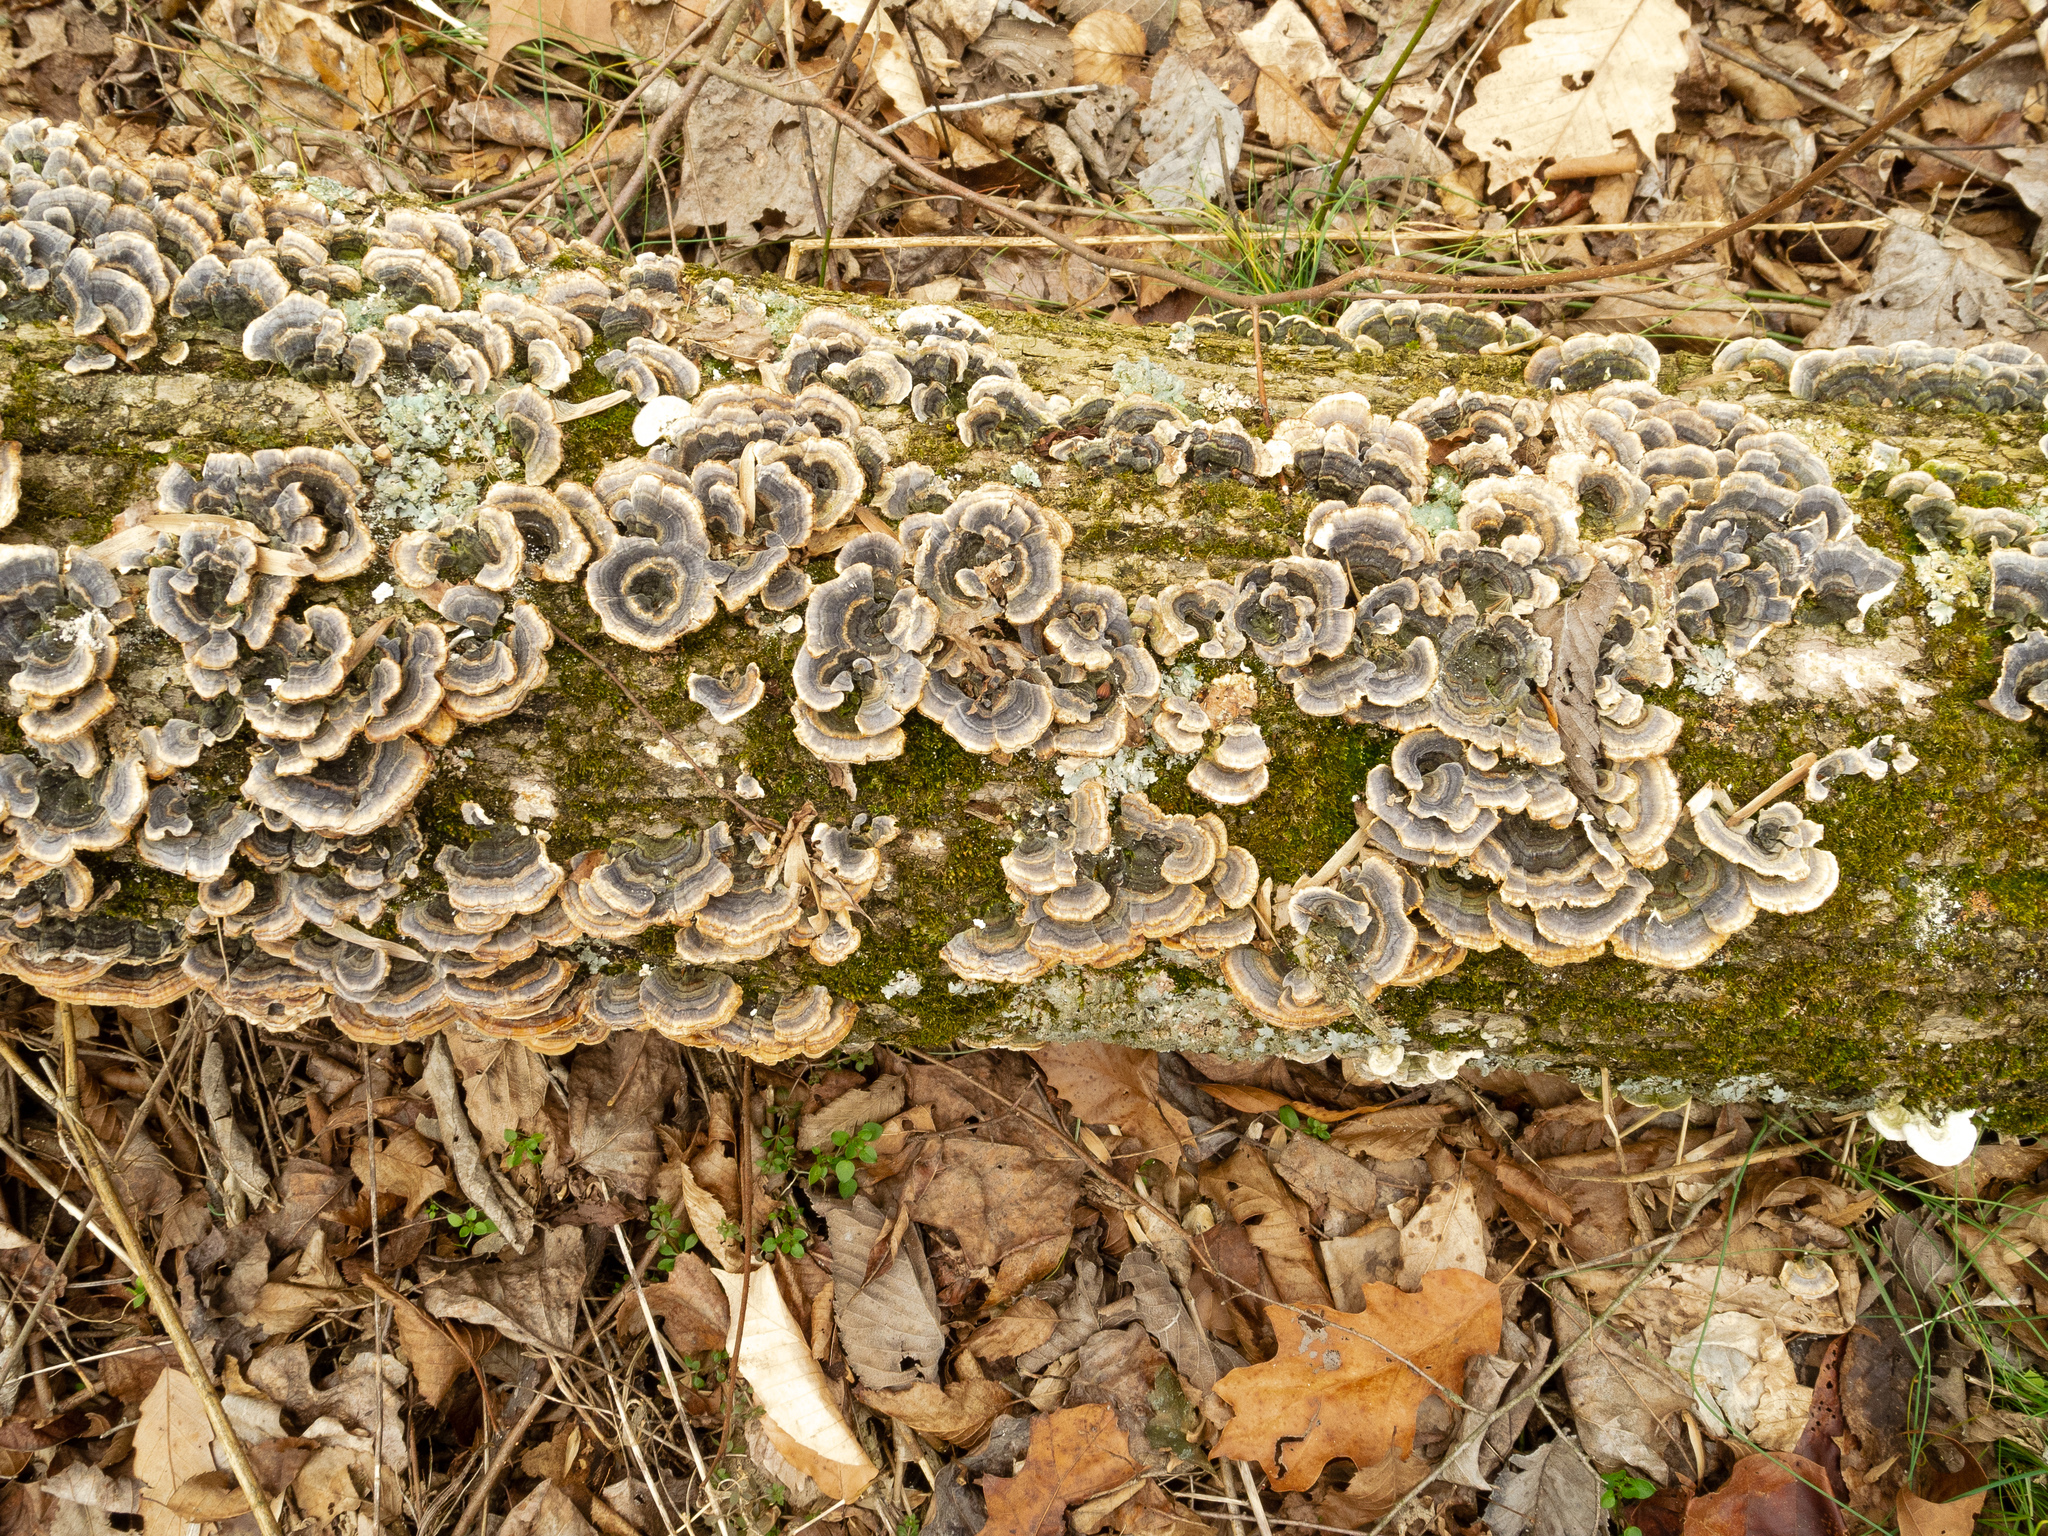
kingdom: Fungi
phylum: Basidiomycota
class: Agaricomycetes
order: Polyporales
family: Polyporaceae
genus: Trametes
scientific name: Trametes versicolor
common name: Turkeytail
